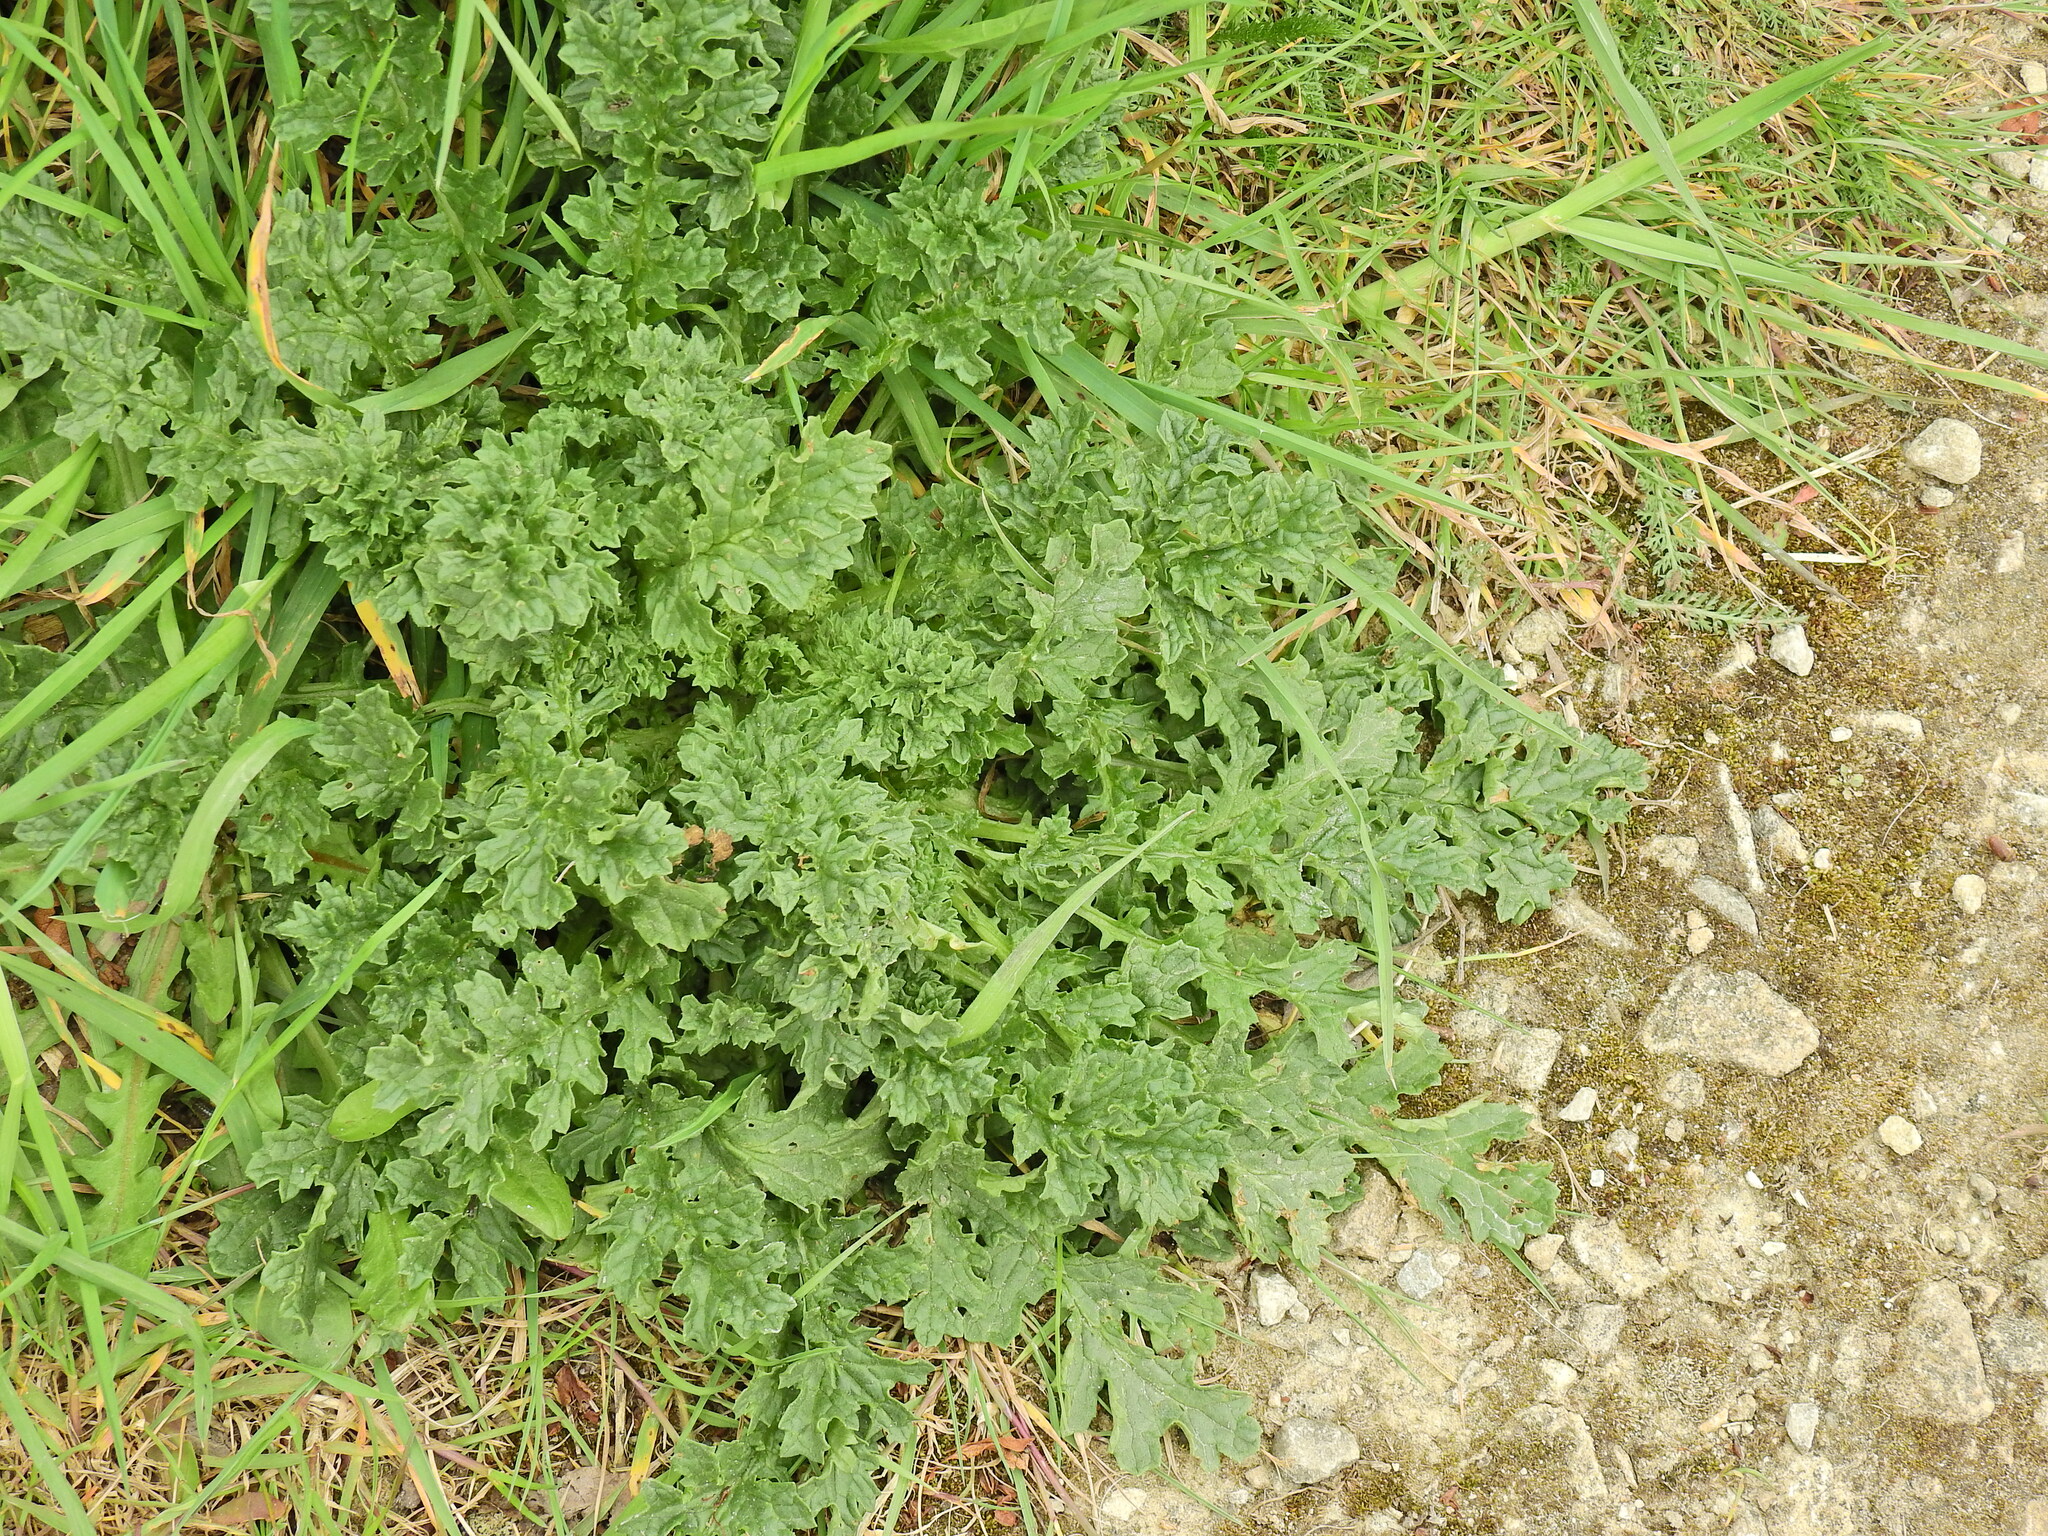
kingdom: Plantae
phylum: Tracheophyta
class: Magnoliopsida
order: Asterales
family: Asteraceae
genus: Jacobaea
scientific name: Jacobaea vulgaris
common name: Stinking willie
